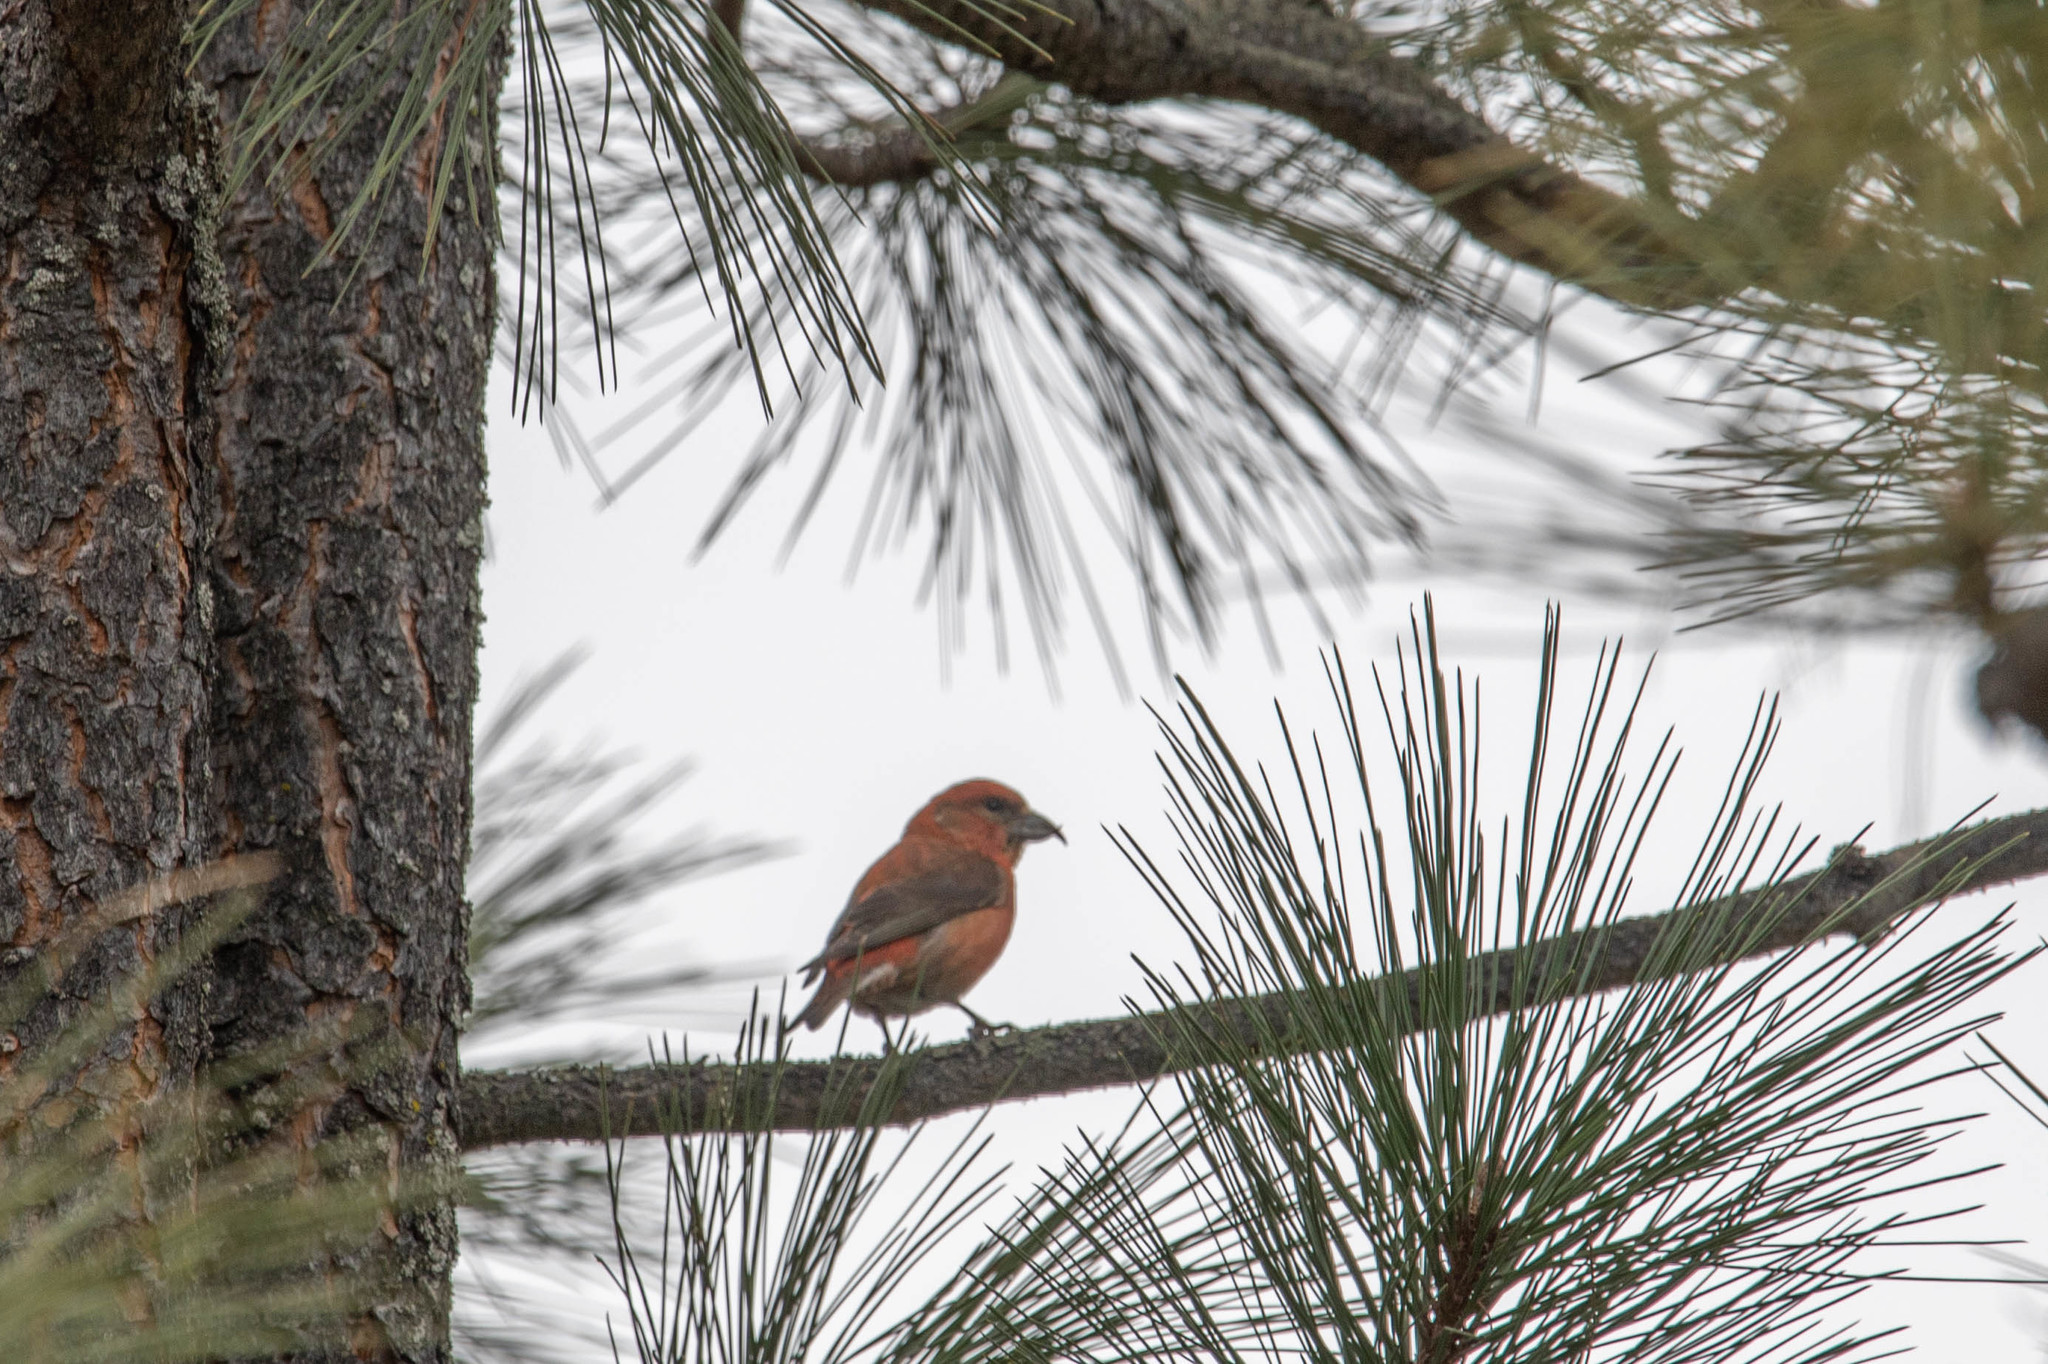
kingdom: Animalia
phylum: Chordata
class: Aves
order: Passeriformes
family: Fringillidae
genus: Loxia
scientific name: Loxia curvirostra
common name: Red crossbill
